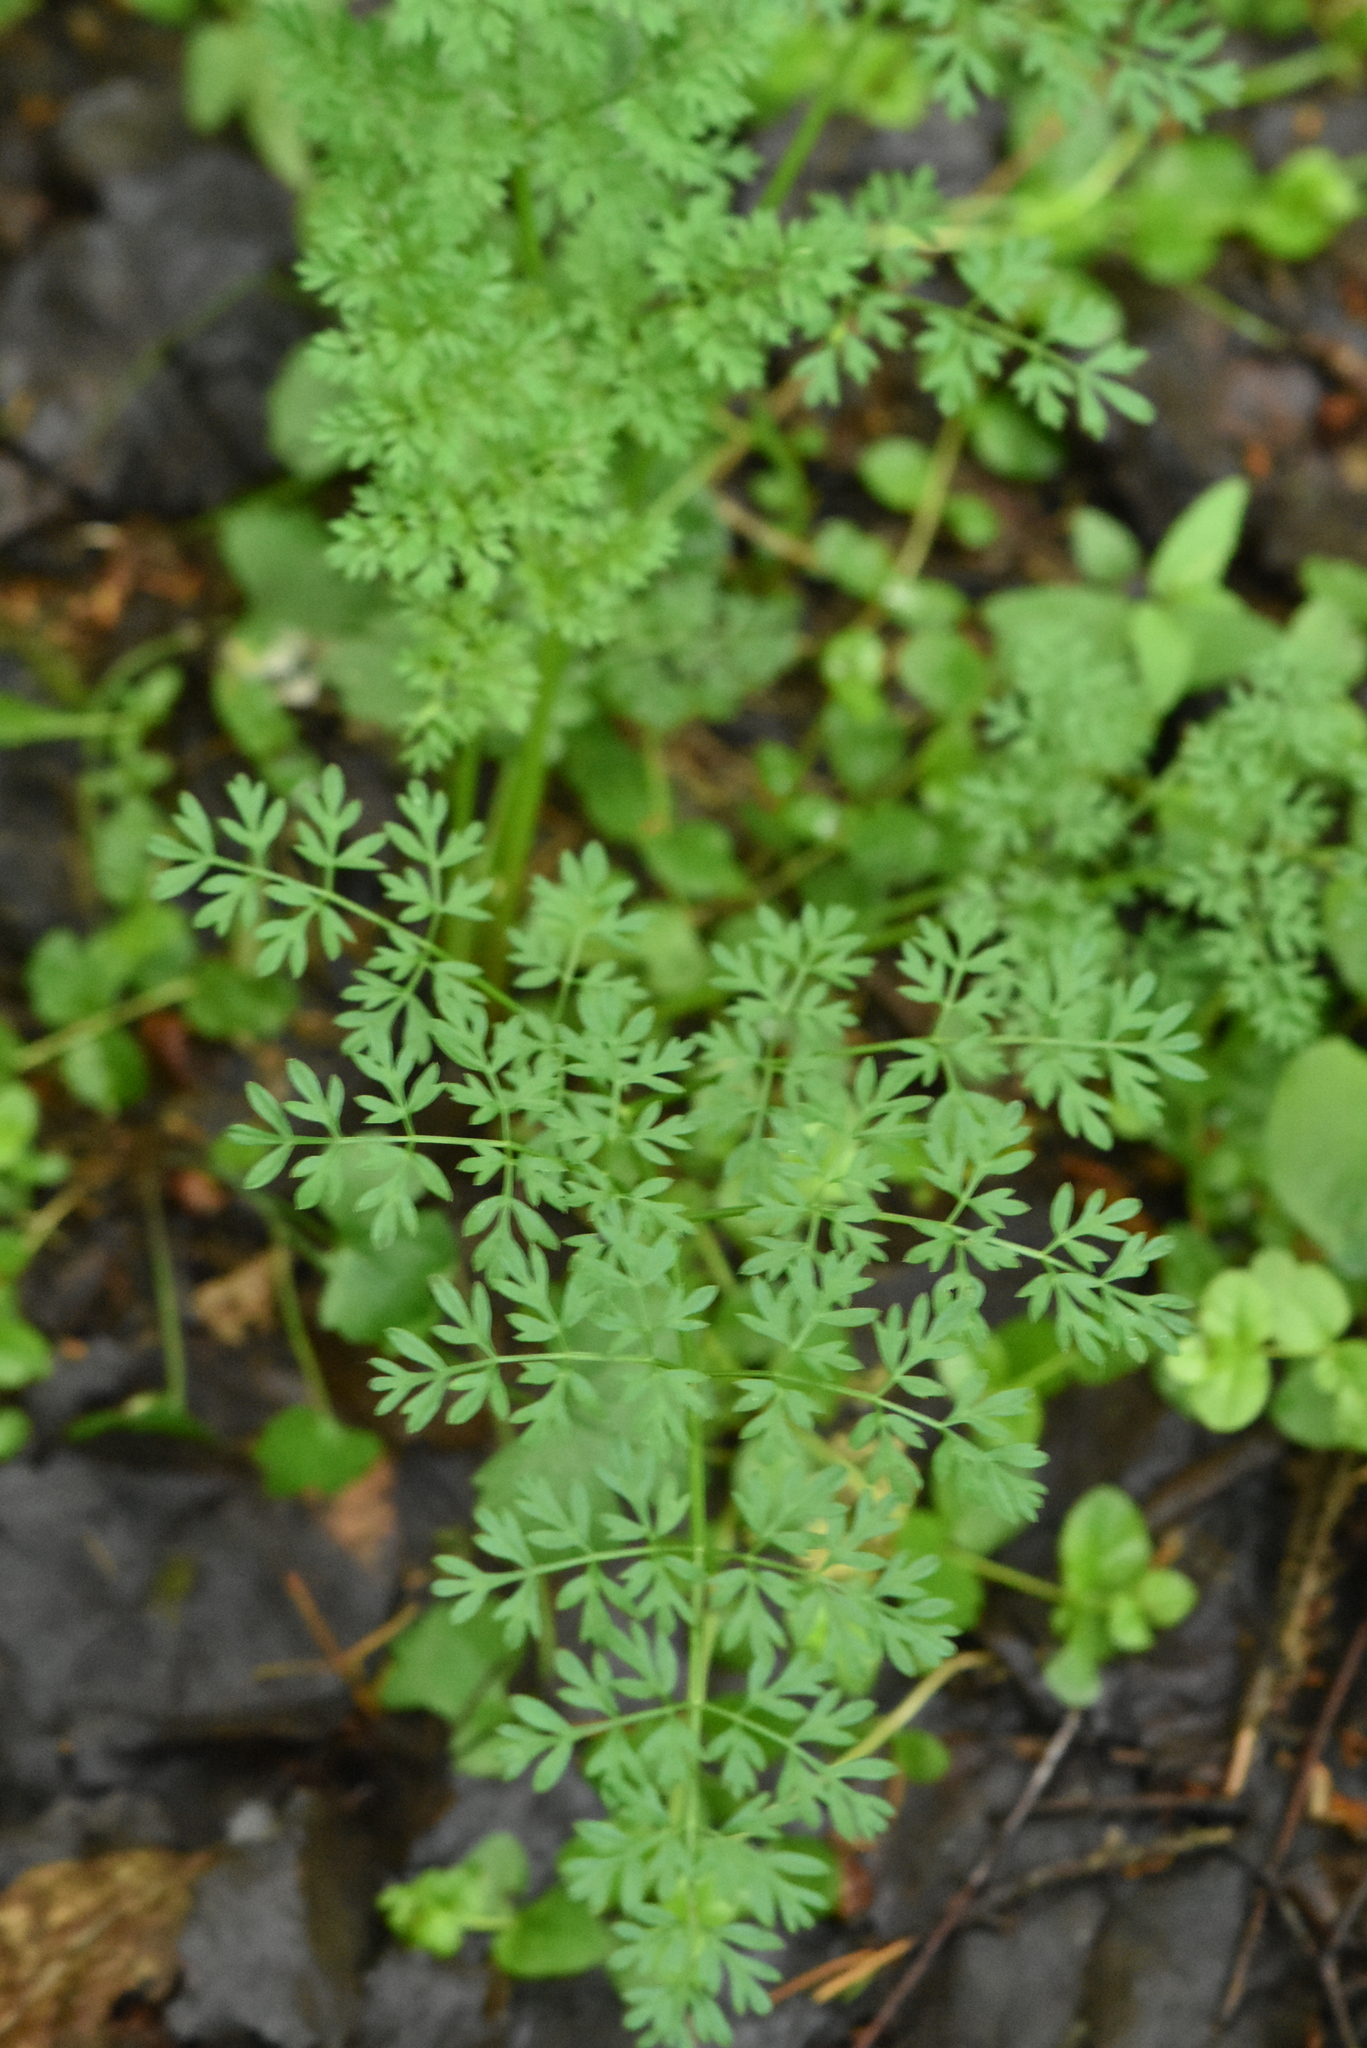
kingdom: Plantae
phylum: Tracheophyta
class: Magnoliopsida
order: Apiales
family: Apiaceae
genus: Selinum
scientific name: Selinum carvifolia
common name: Cambridge milk-parsley
